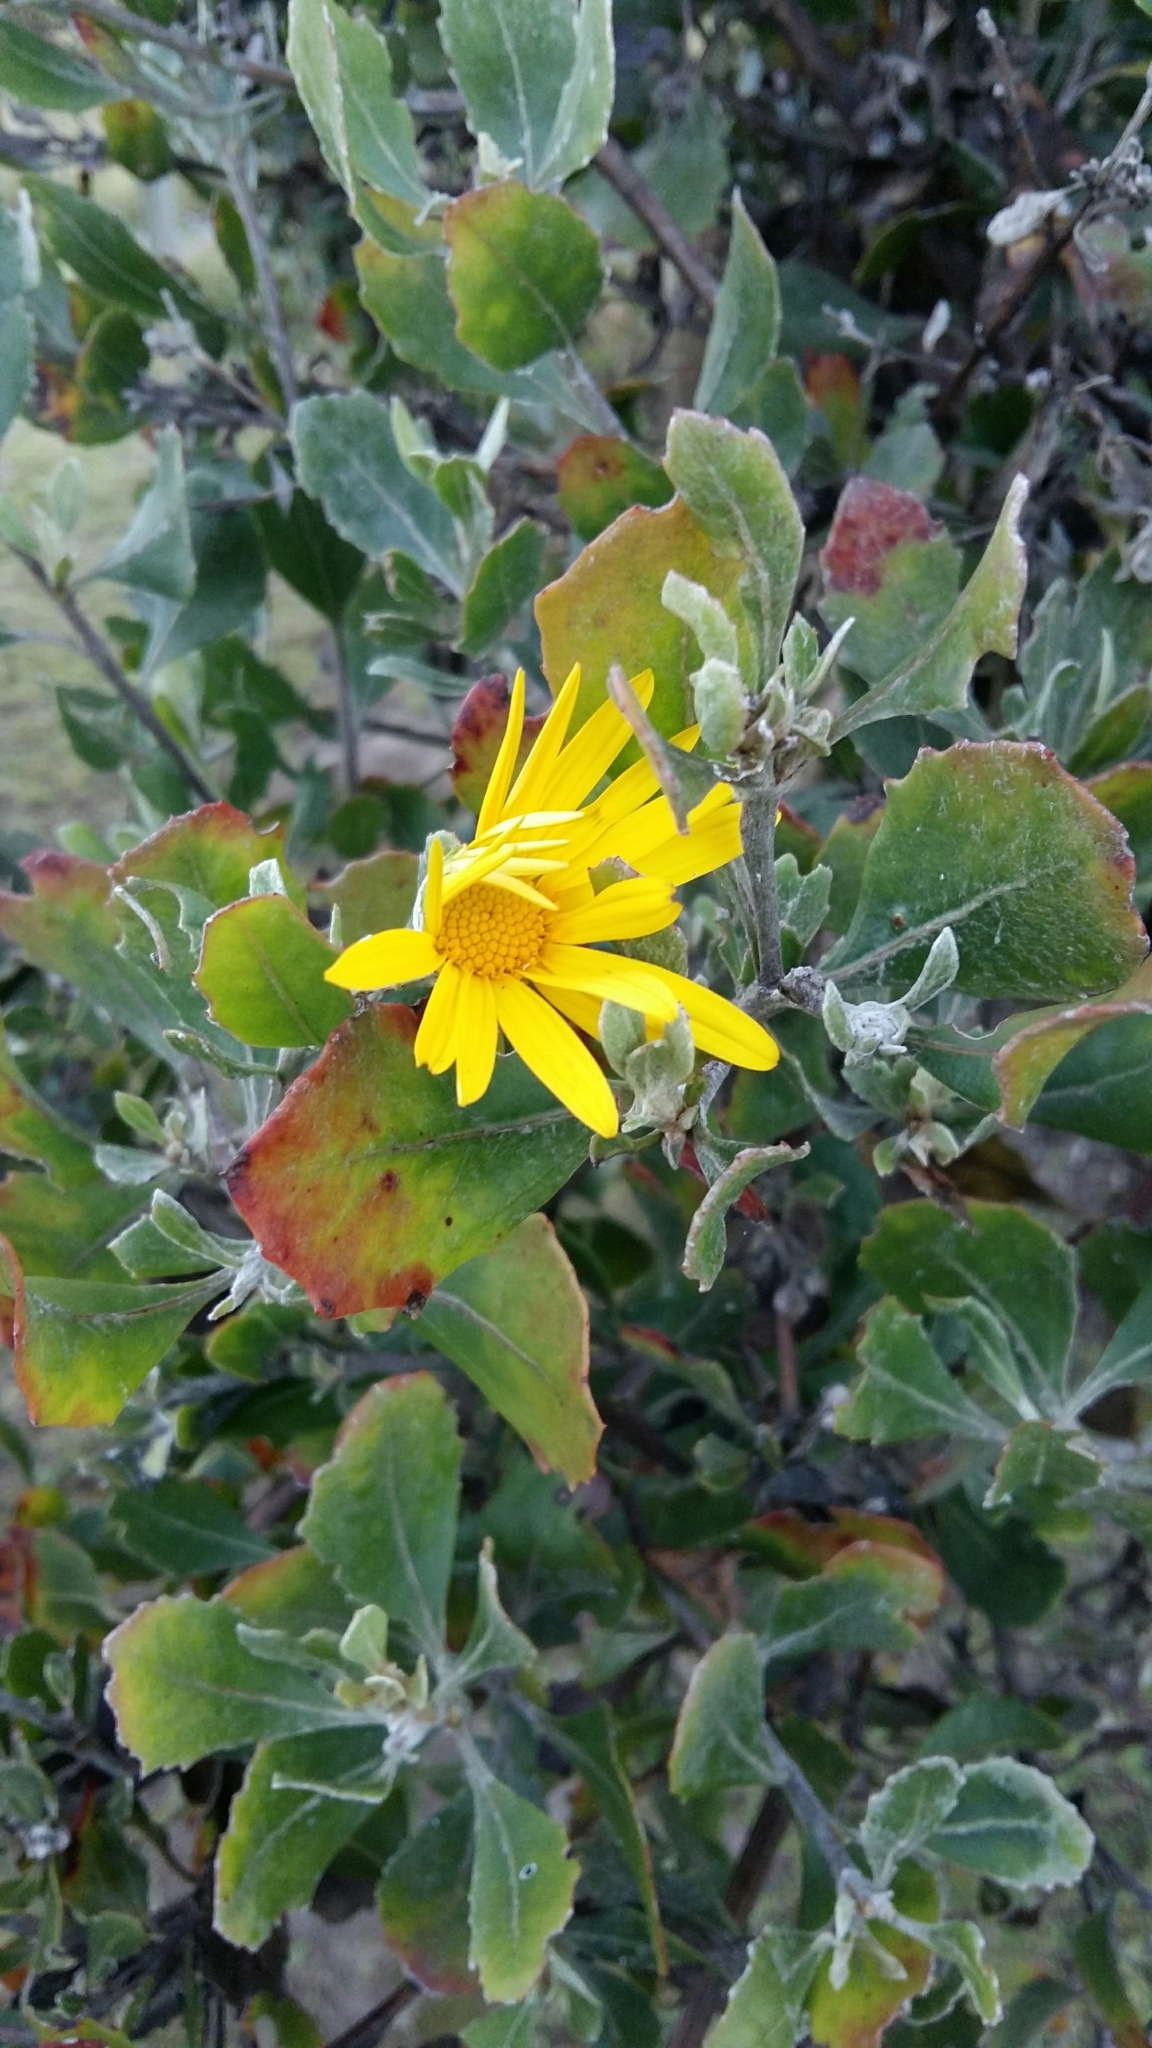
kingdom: Plantae
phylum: Tracheophyta
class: Magnoliopsida
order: Asterales
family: Asteraceae
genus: Osteospermum
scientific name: Osteospermum moniliferum
